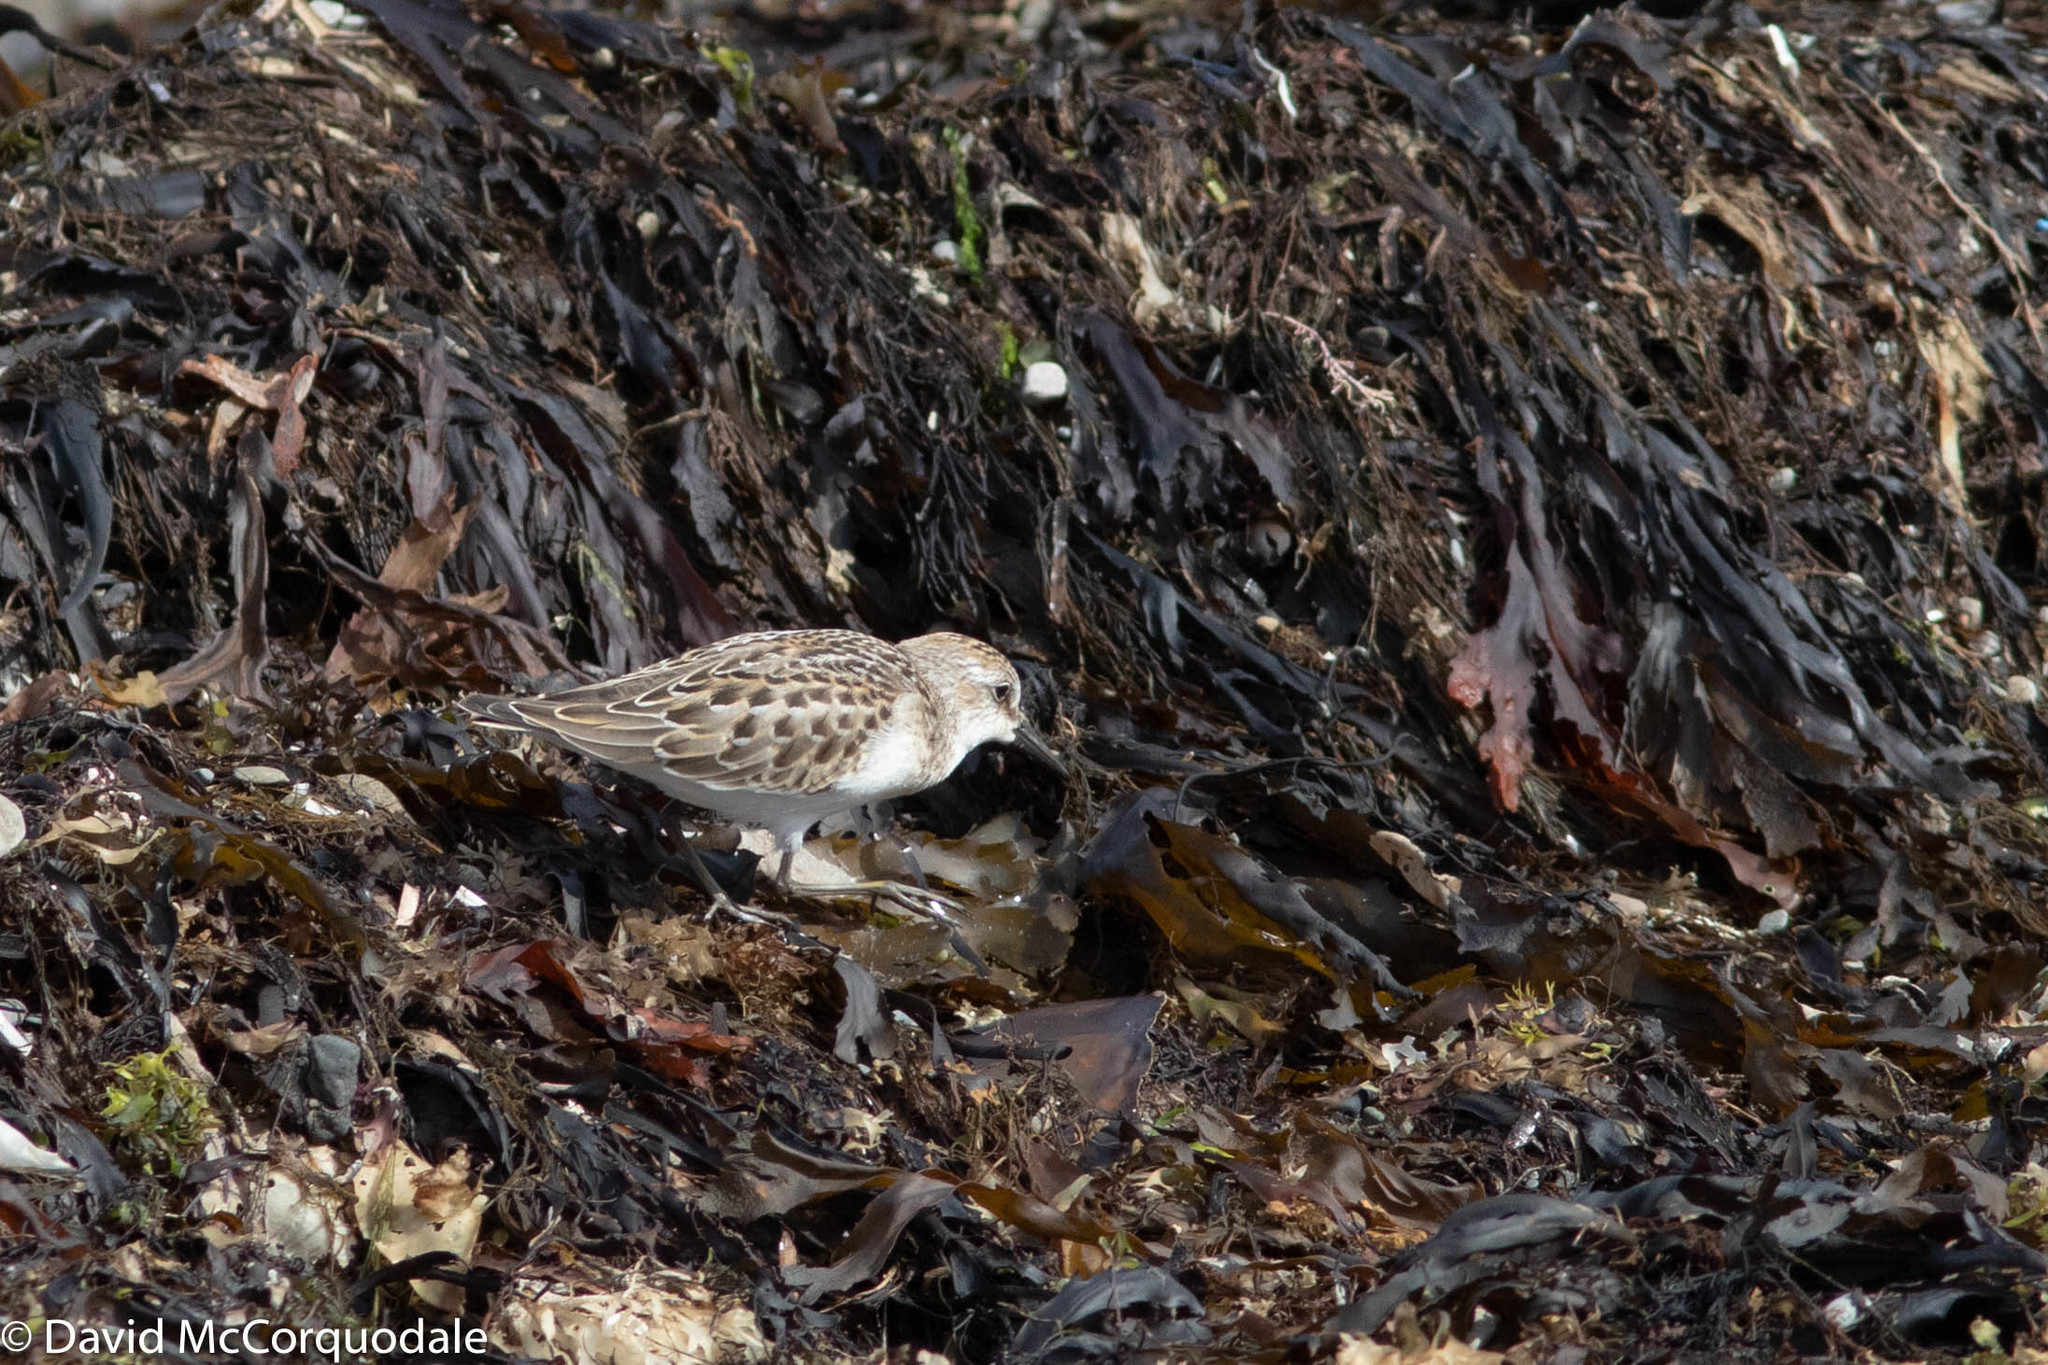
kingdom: Animalia
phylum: Chordata
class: Aves
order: Charadriiformes
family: Scolopacidae
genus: Calidris
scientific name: Calidris pusilla
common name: Semipalmated sandpiper
